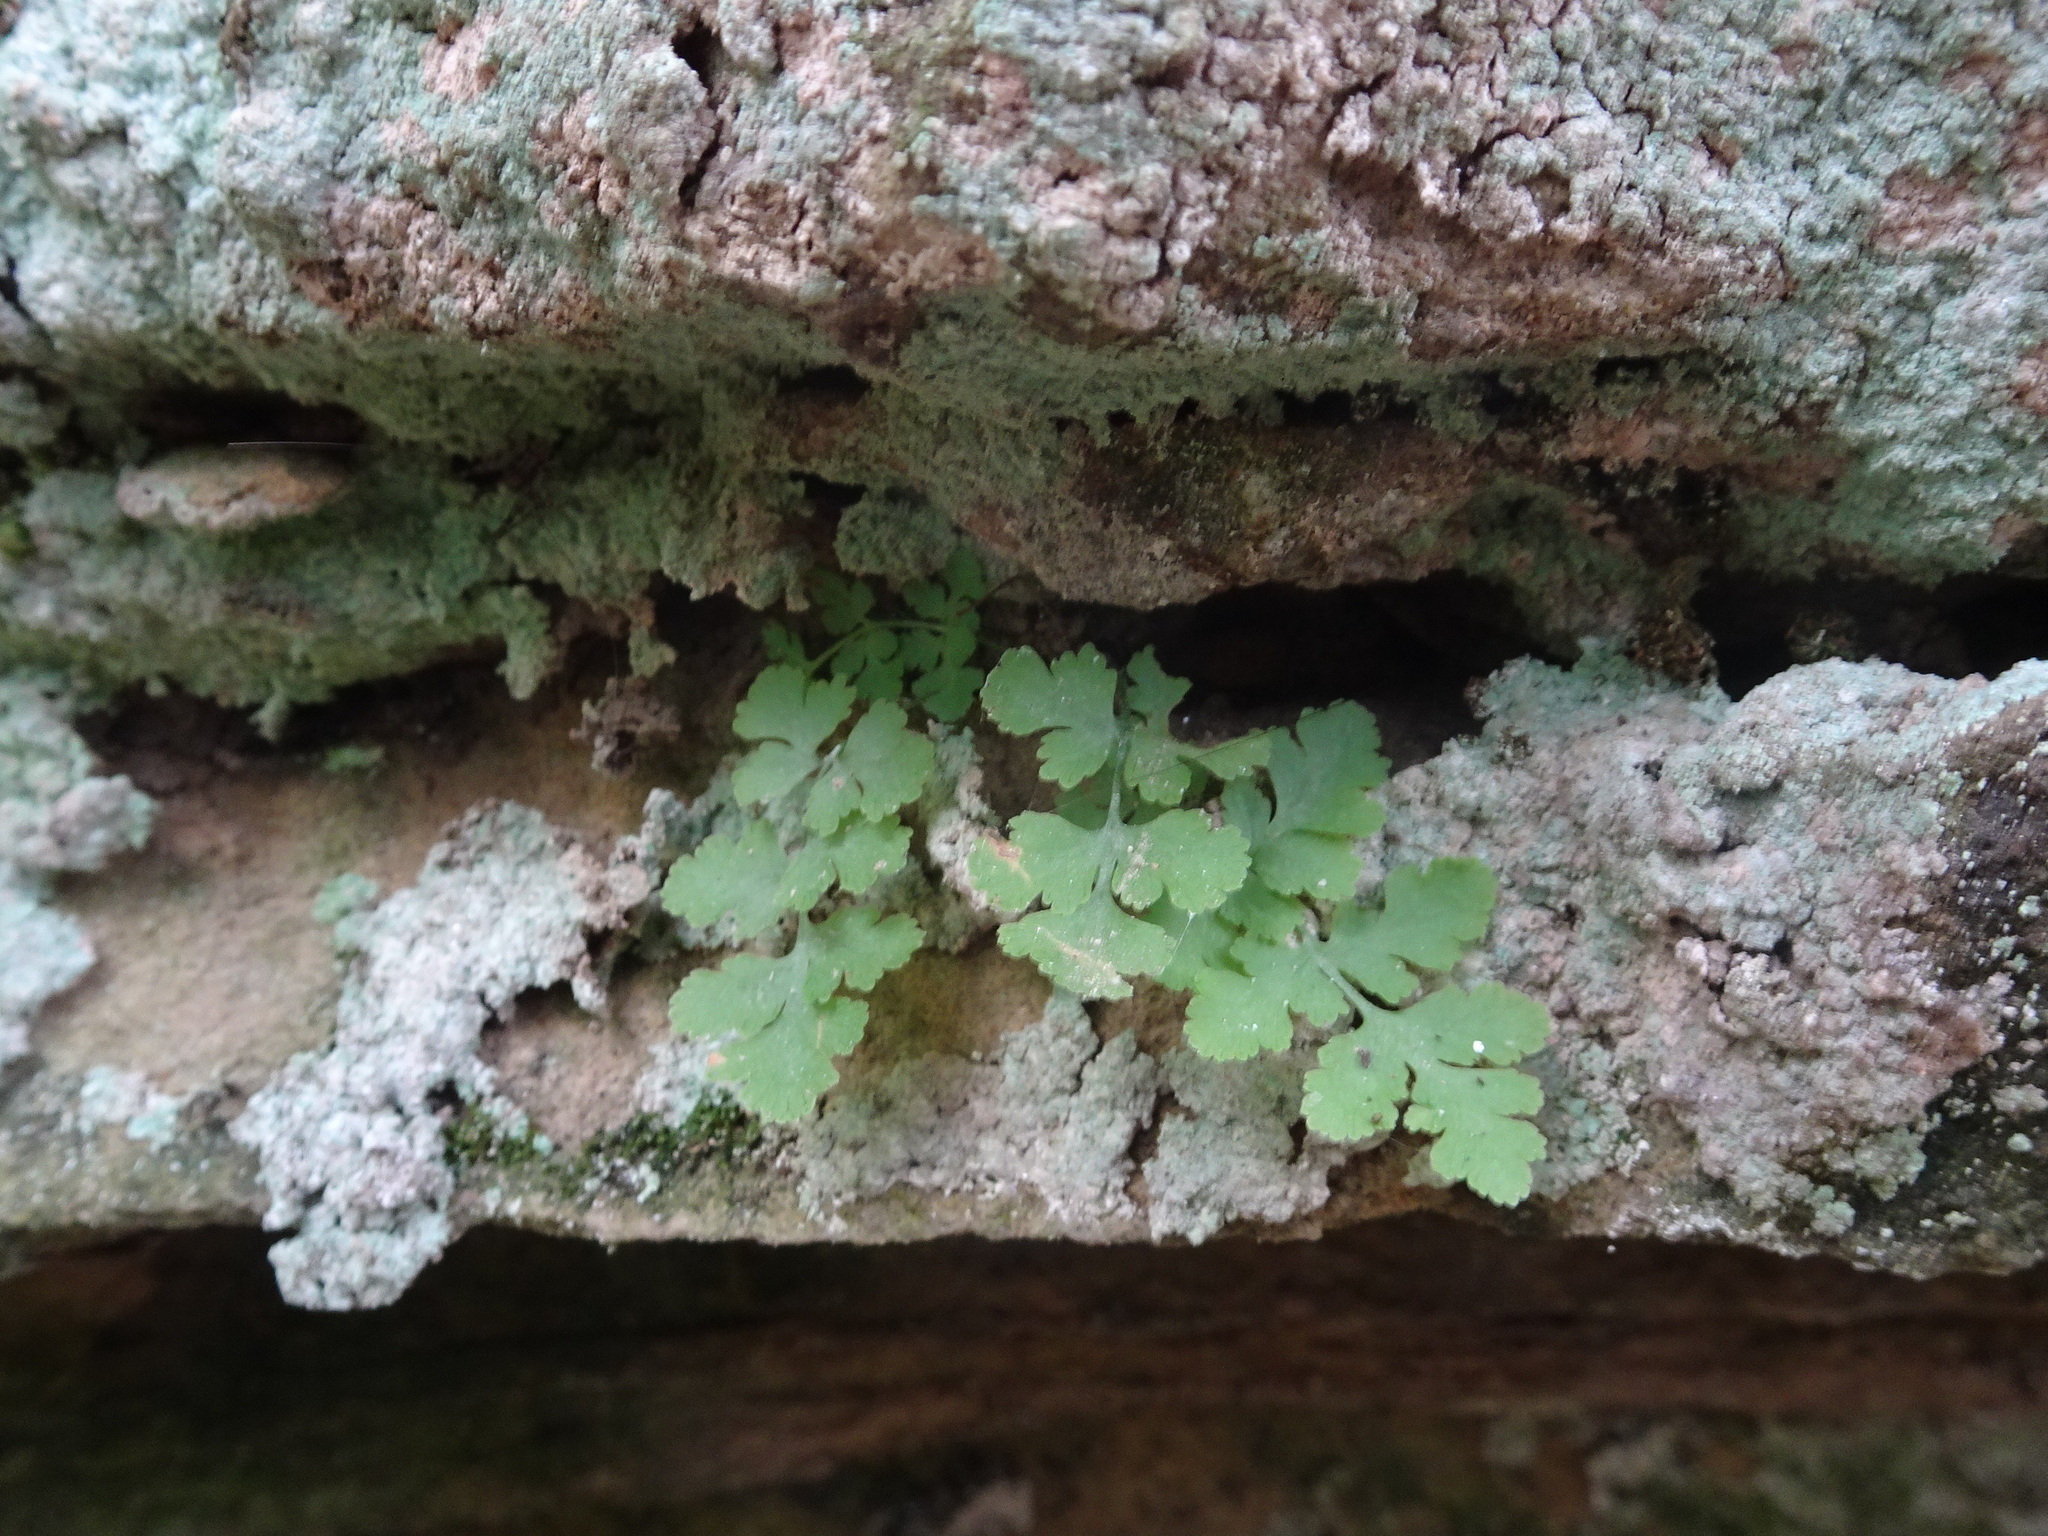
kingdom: Plantae
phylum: Tracheophyta
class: Polypodiopsida
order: Polypodiales
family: Woodsiaceae
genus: Physematium
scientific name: Physematium obtusum
